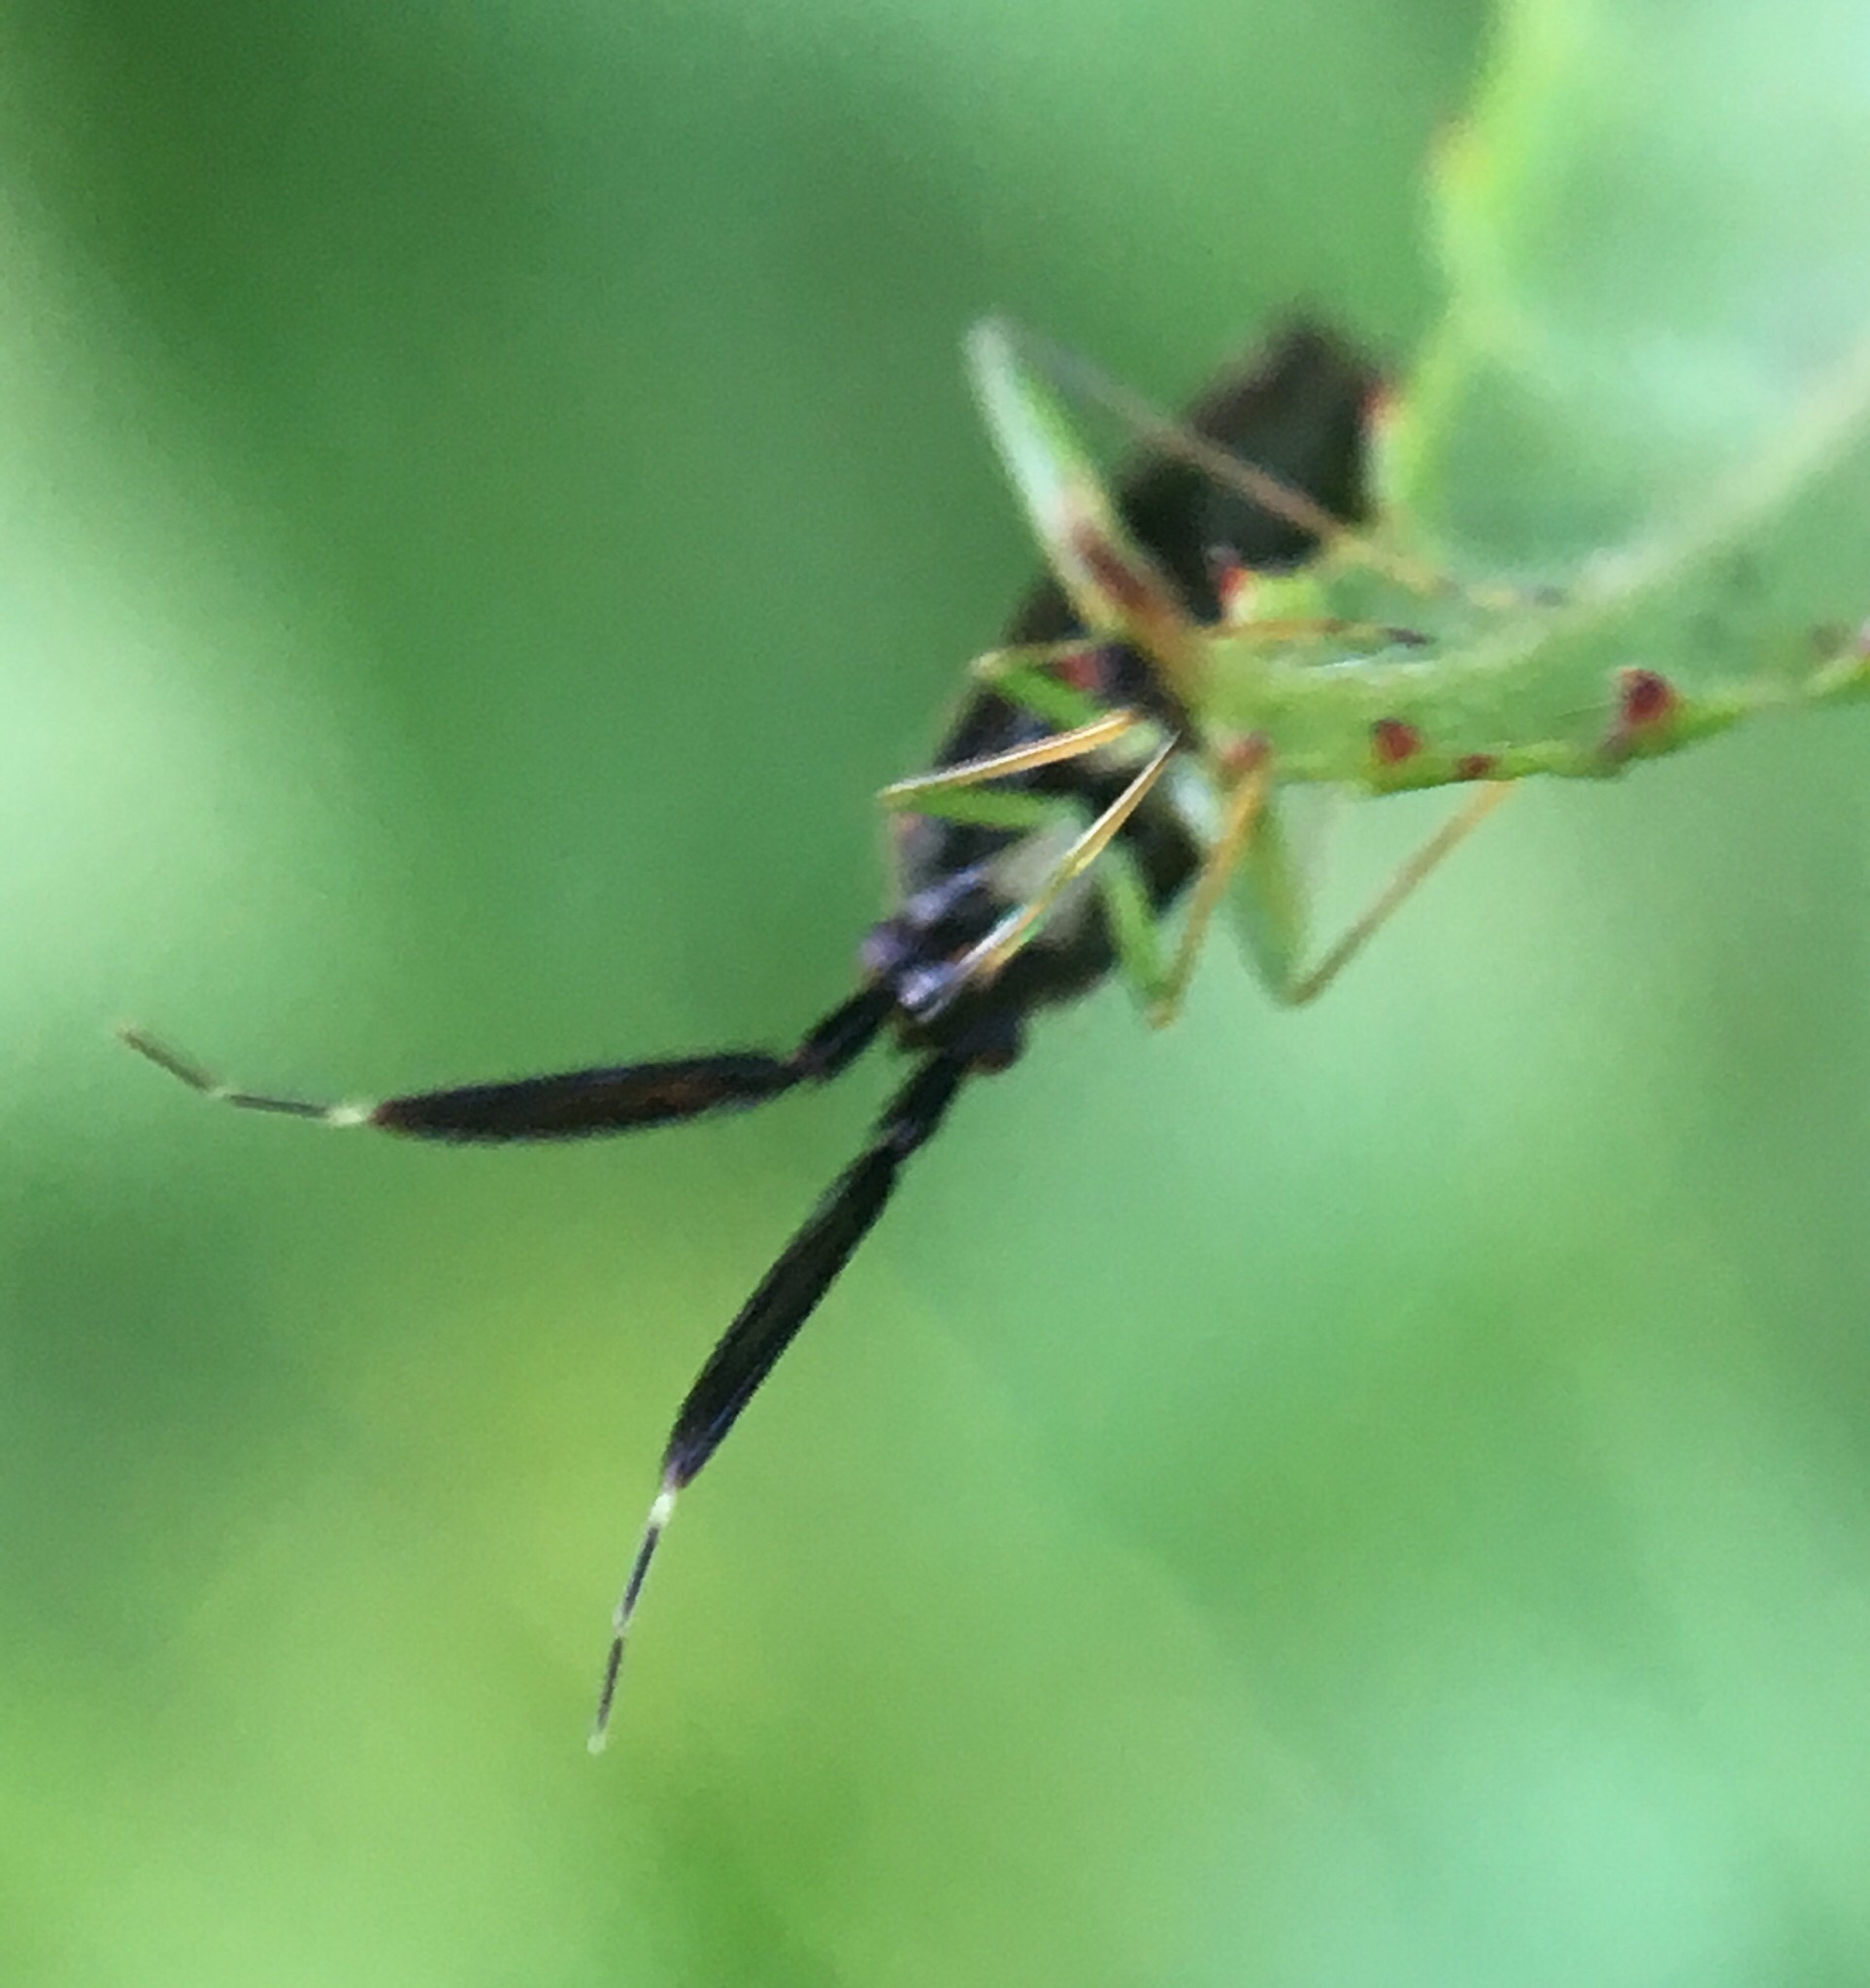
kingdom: Animalia
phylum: Arthropoda
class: Insecta
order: Hemiptera
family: Miridae
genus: Heterotoma
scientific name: Heterotoma planicornis
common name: Plant bug
